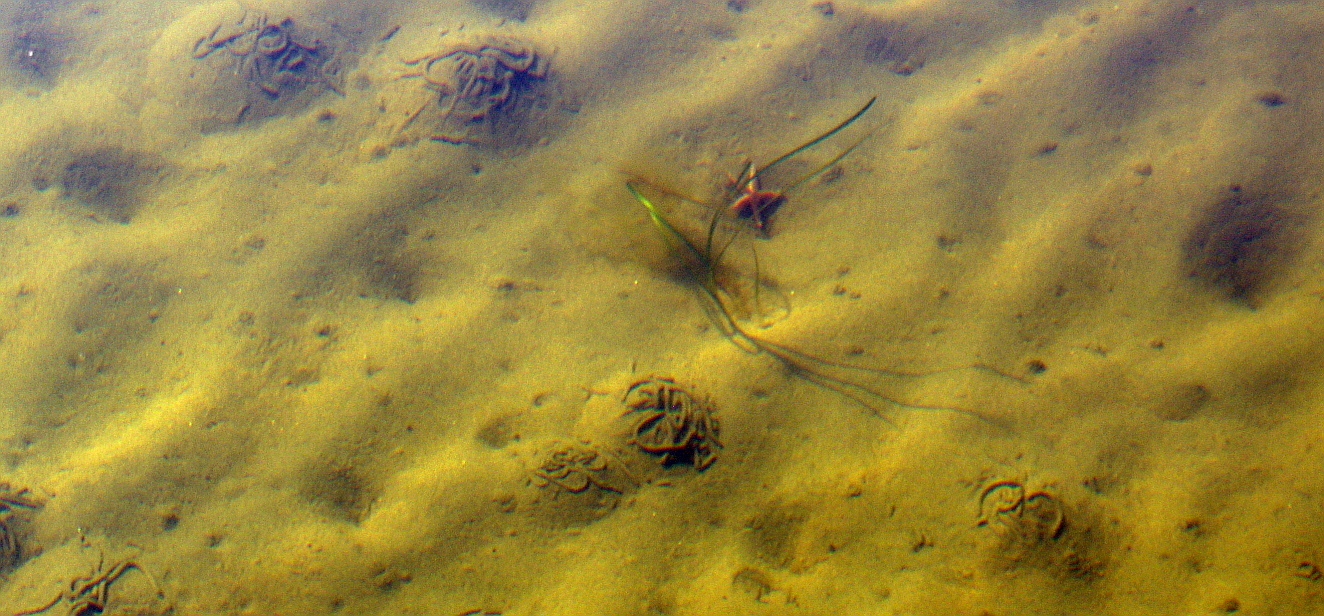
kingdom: Animalia
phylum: Annelida
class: Polychaeta
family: Arenicolidae
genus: Arenicola
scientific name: Arenicola marina
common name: Blow lugworm
